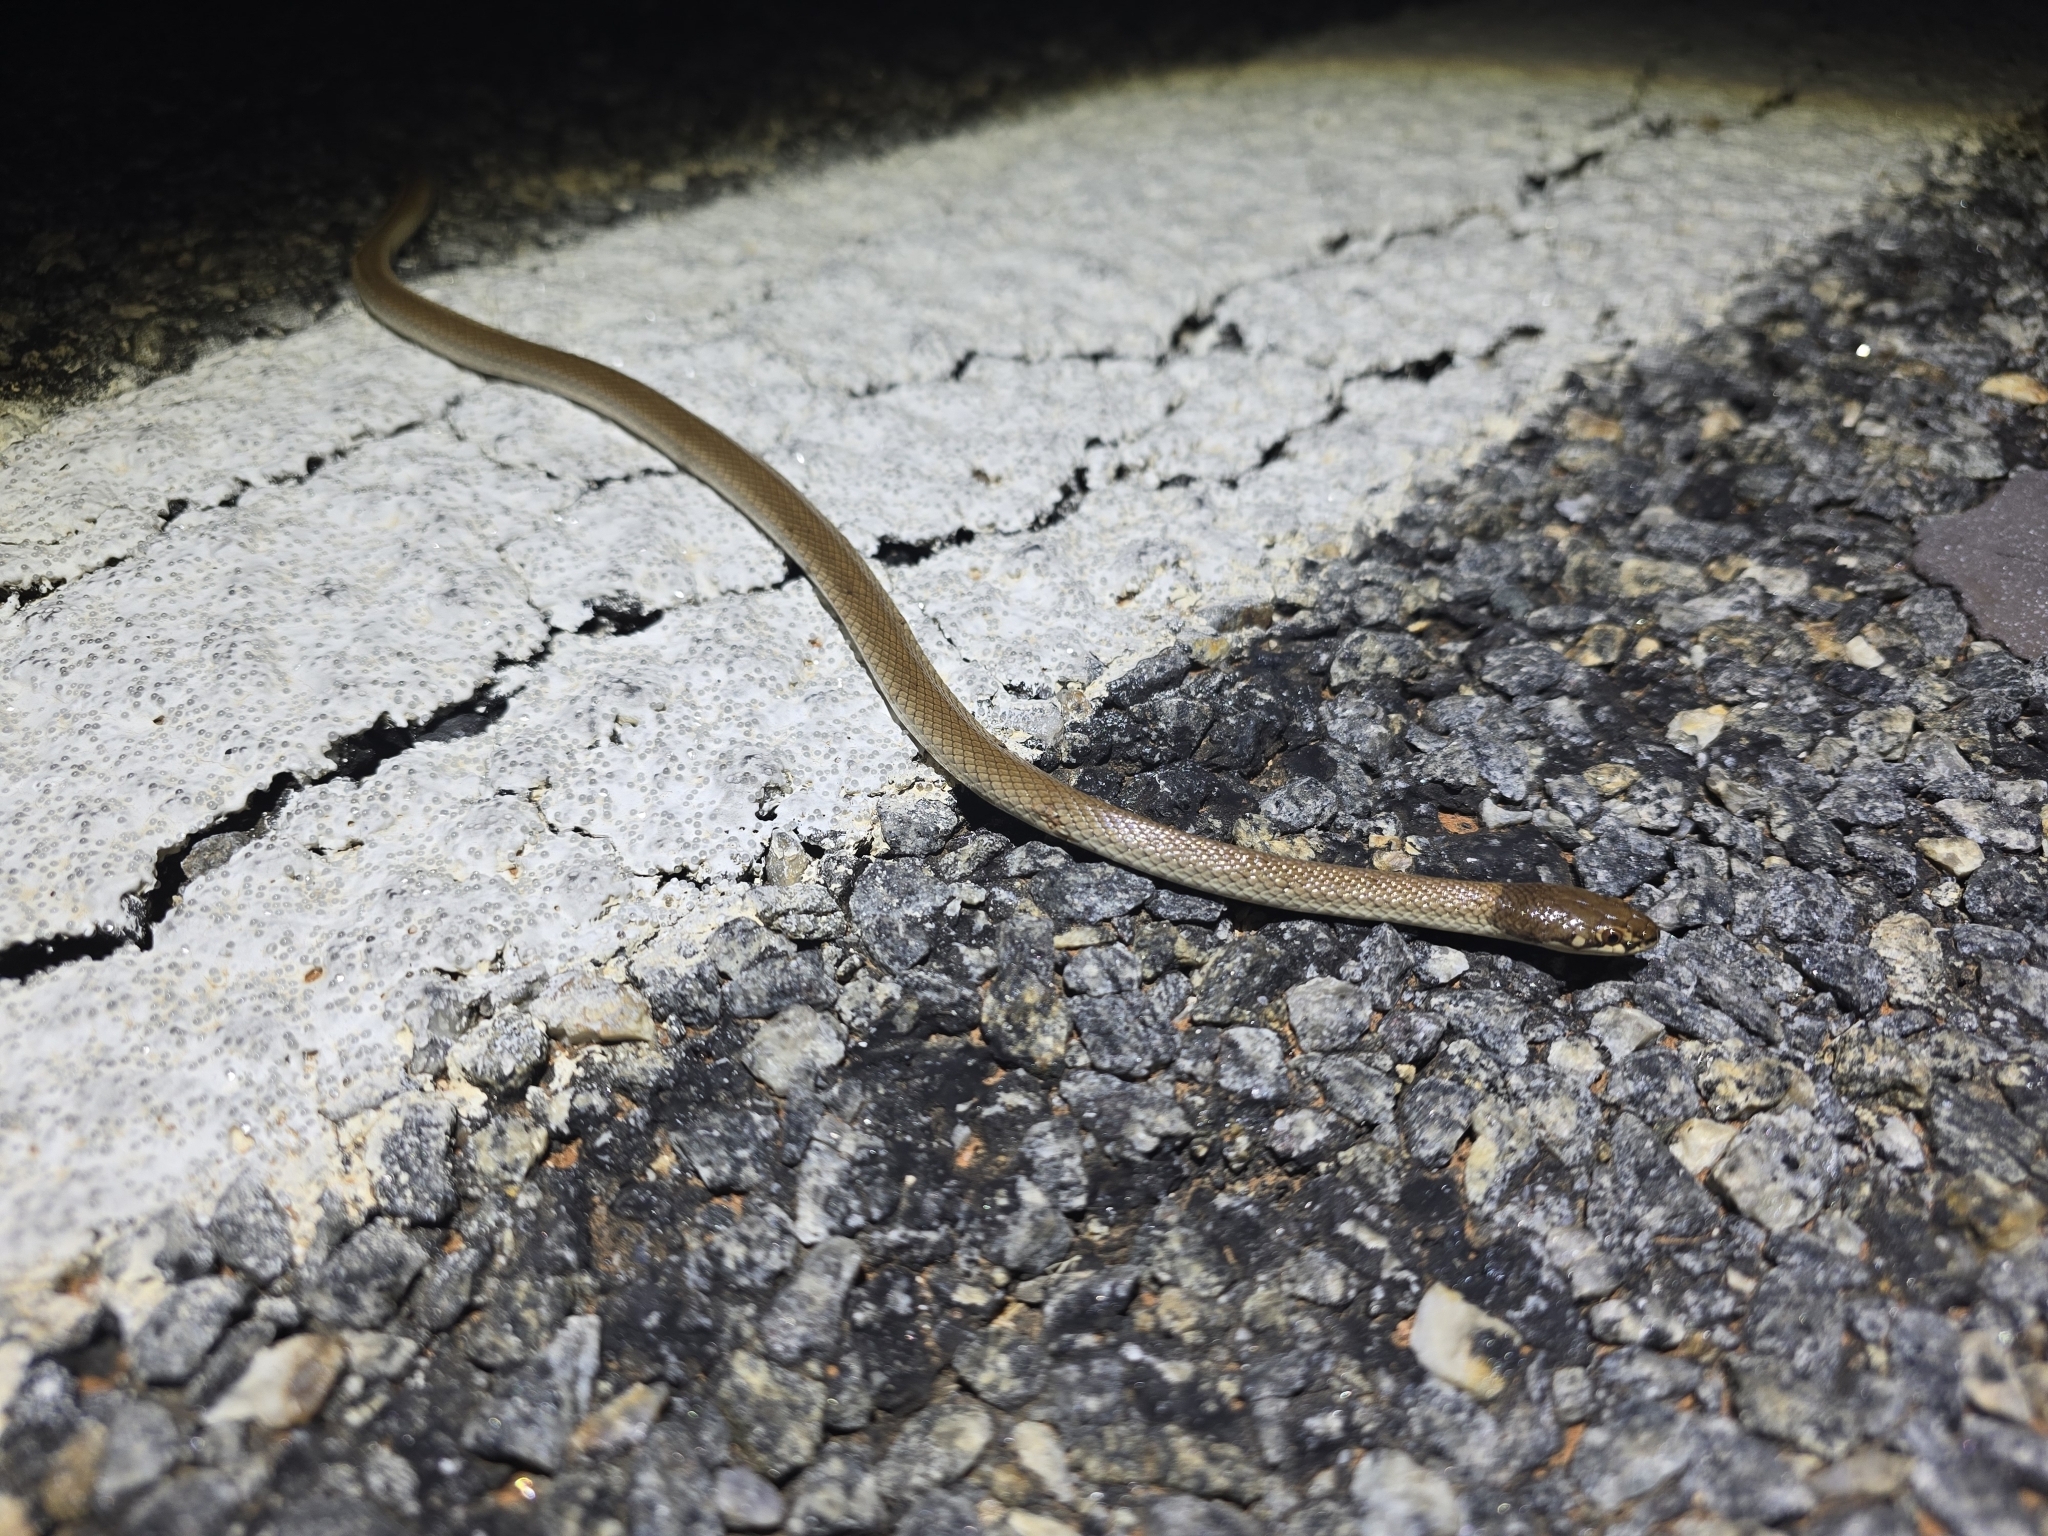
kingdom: Animalia
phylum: Chordata
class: Squamata
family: Elapidae
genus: Suta
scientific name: Suta suta
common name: Curl snake
